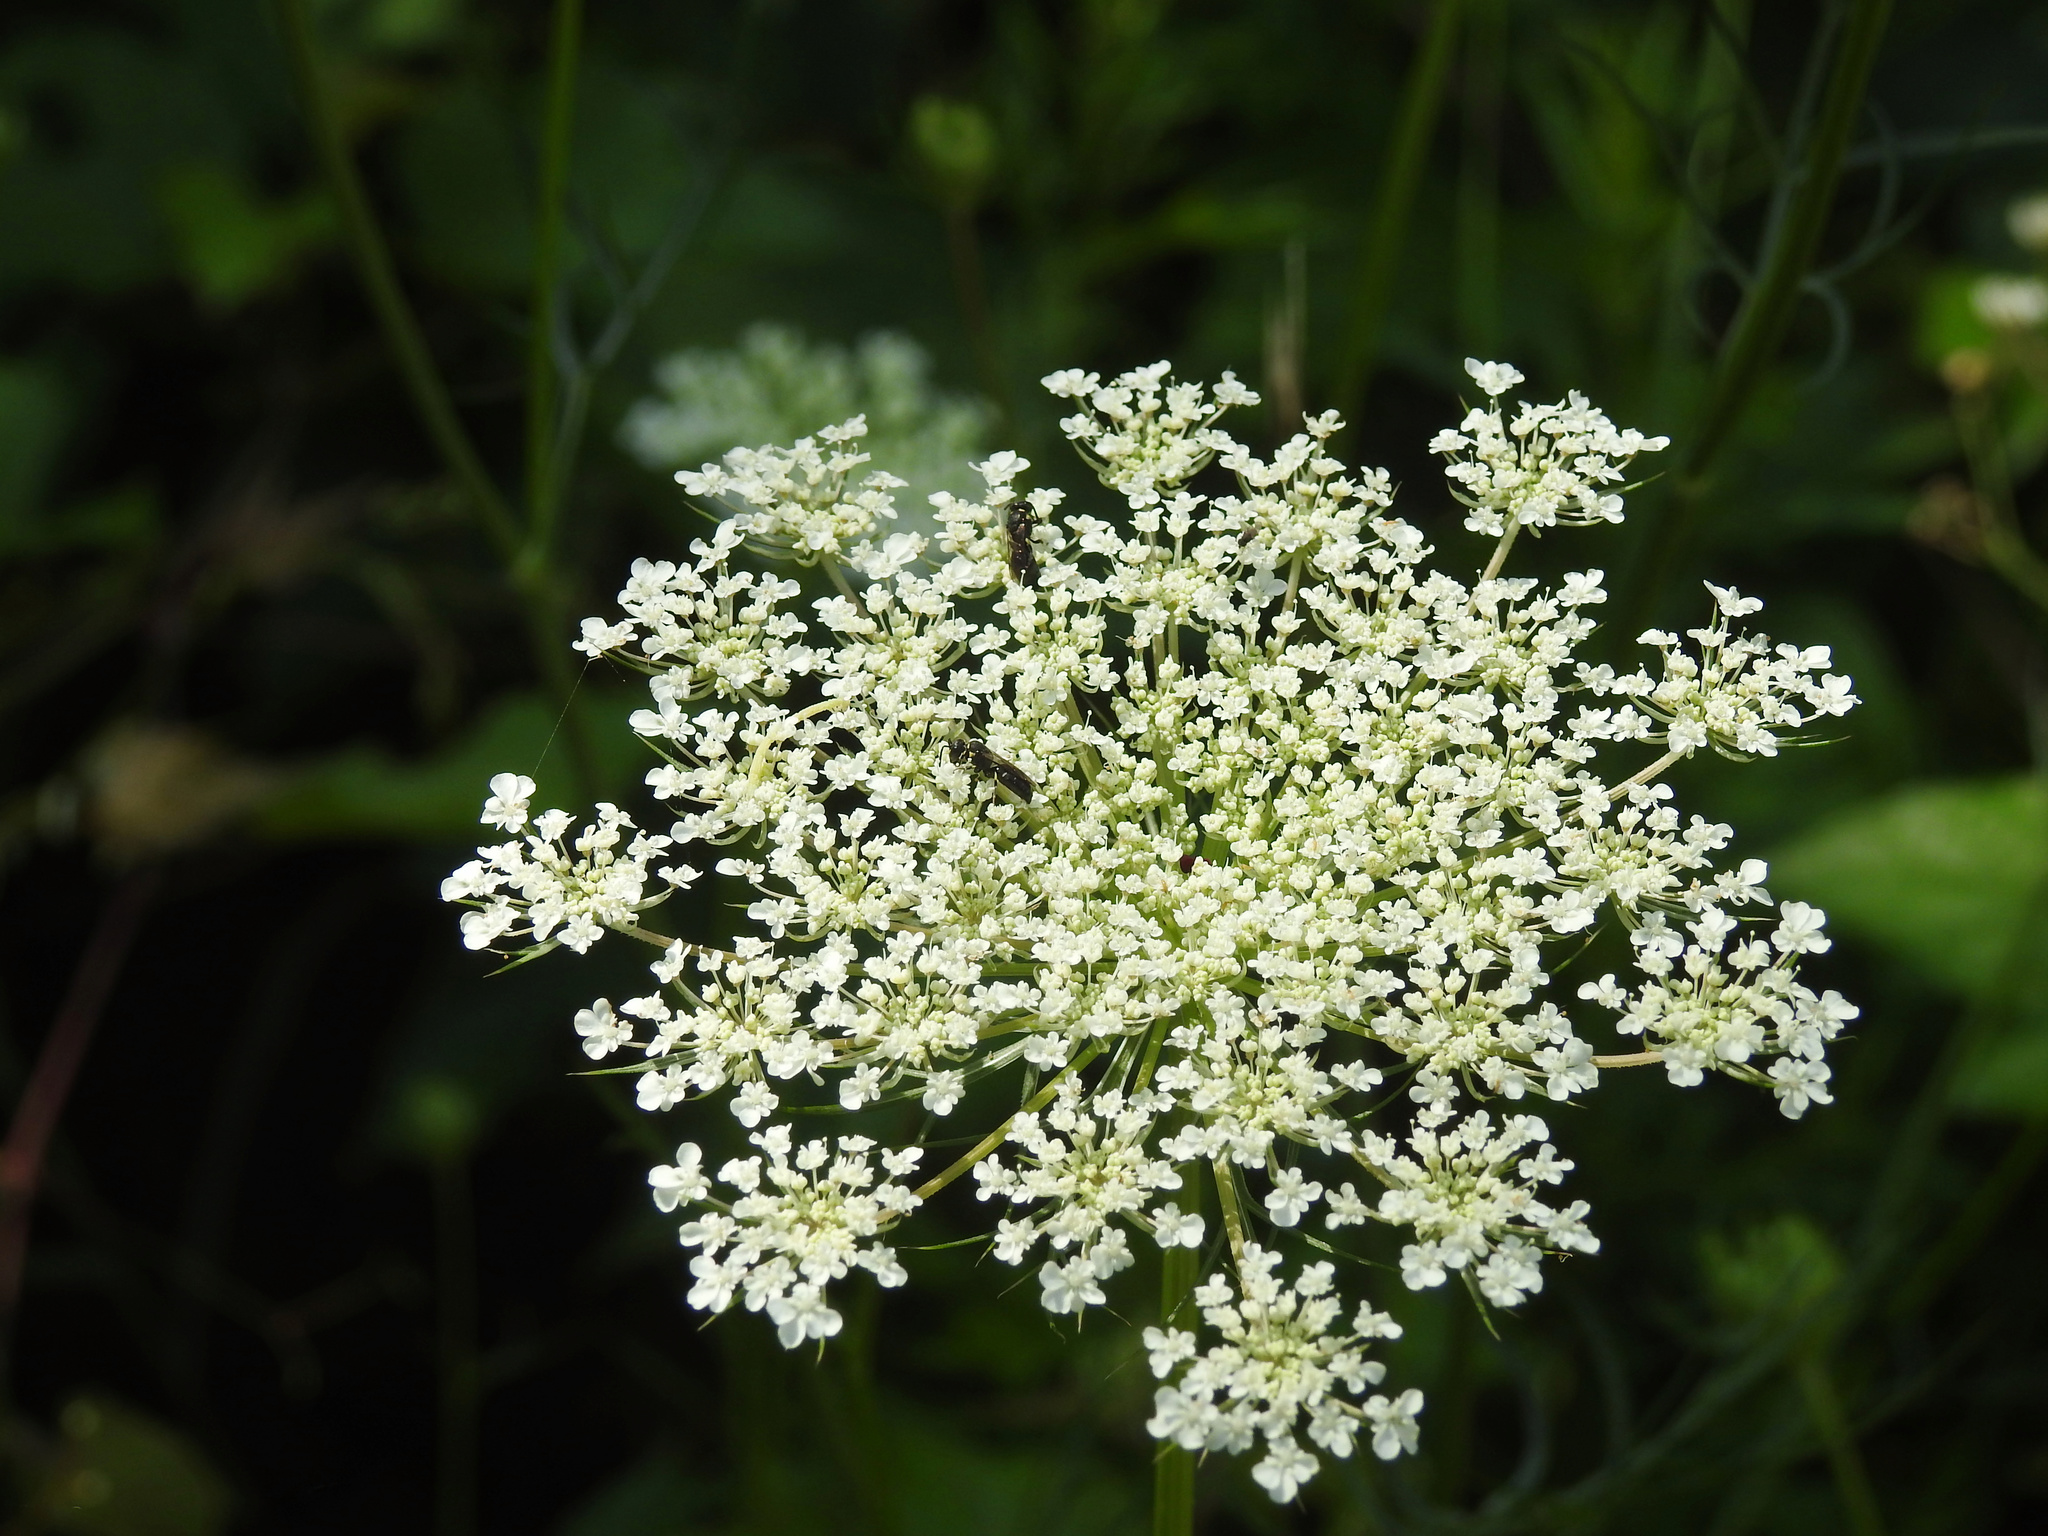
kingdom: Plantae
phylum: Tracheophyta
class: Magnoliopsida
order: Apiales
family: Apiaceae
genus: Daucus
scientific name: Daucus carota
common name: Wild carrot
